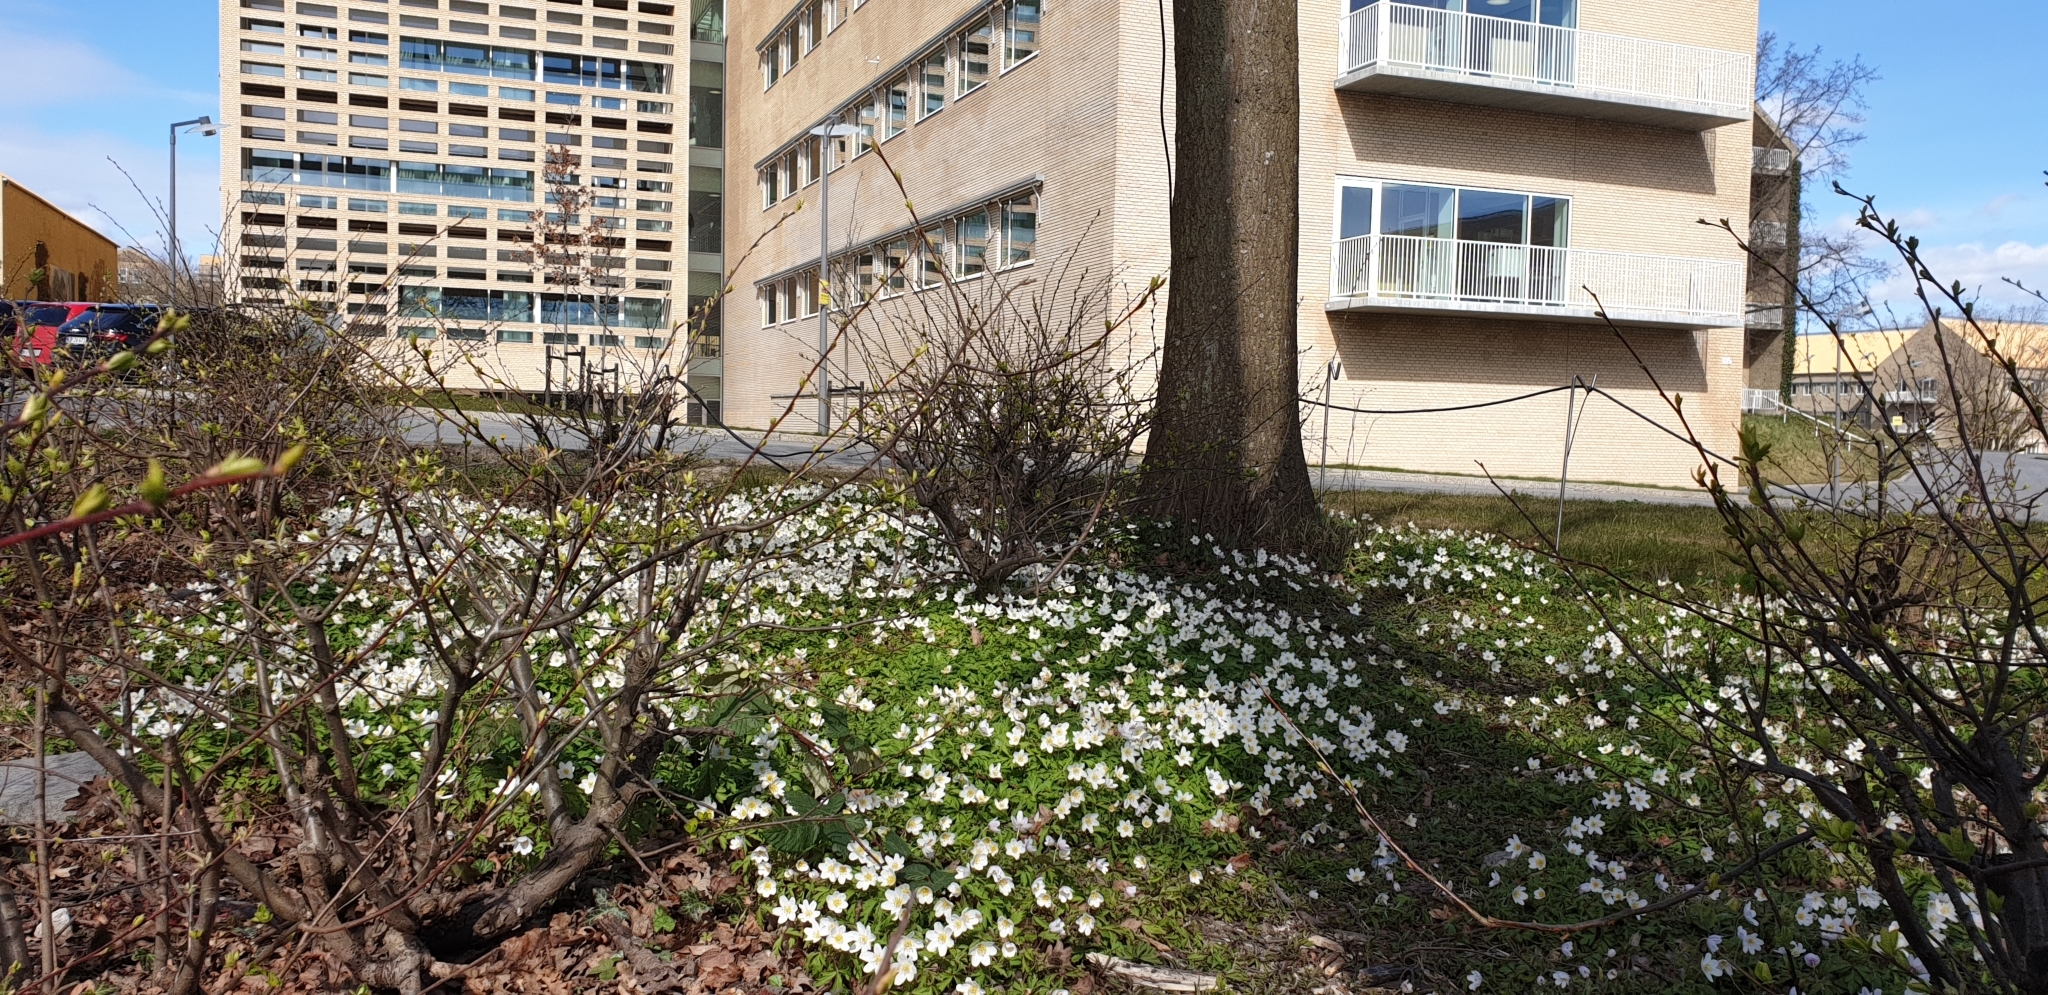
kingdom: Plantae
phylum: Tracheophyta
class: Magnoliopsida
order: Ranunculales
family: Ranunculaceae
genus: Anemone
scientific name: Anemone nemorosa
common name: Wood anemone
